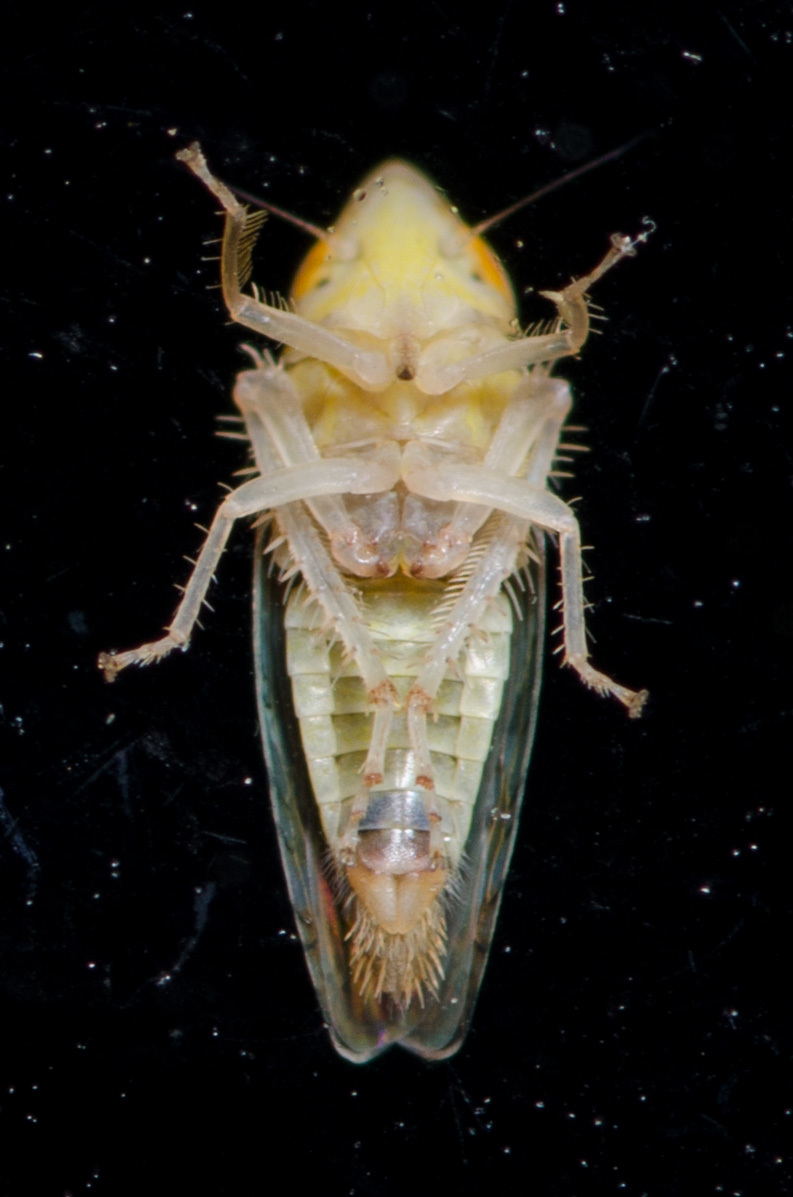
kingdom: Animalia
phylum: Arthropoda
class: Insecta
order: Hemiptera
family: Cicadellidae
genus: Scaphytopius
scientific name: Scaphytopius elegans
